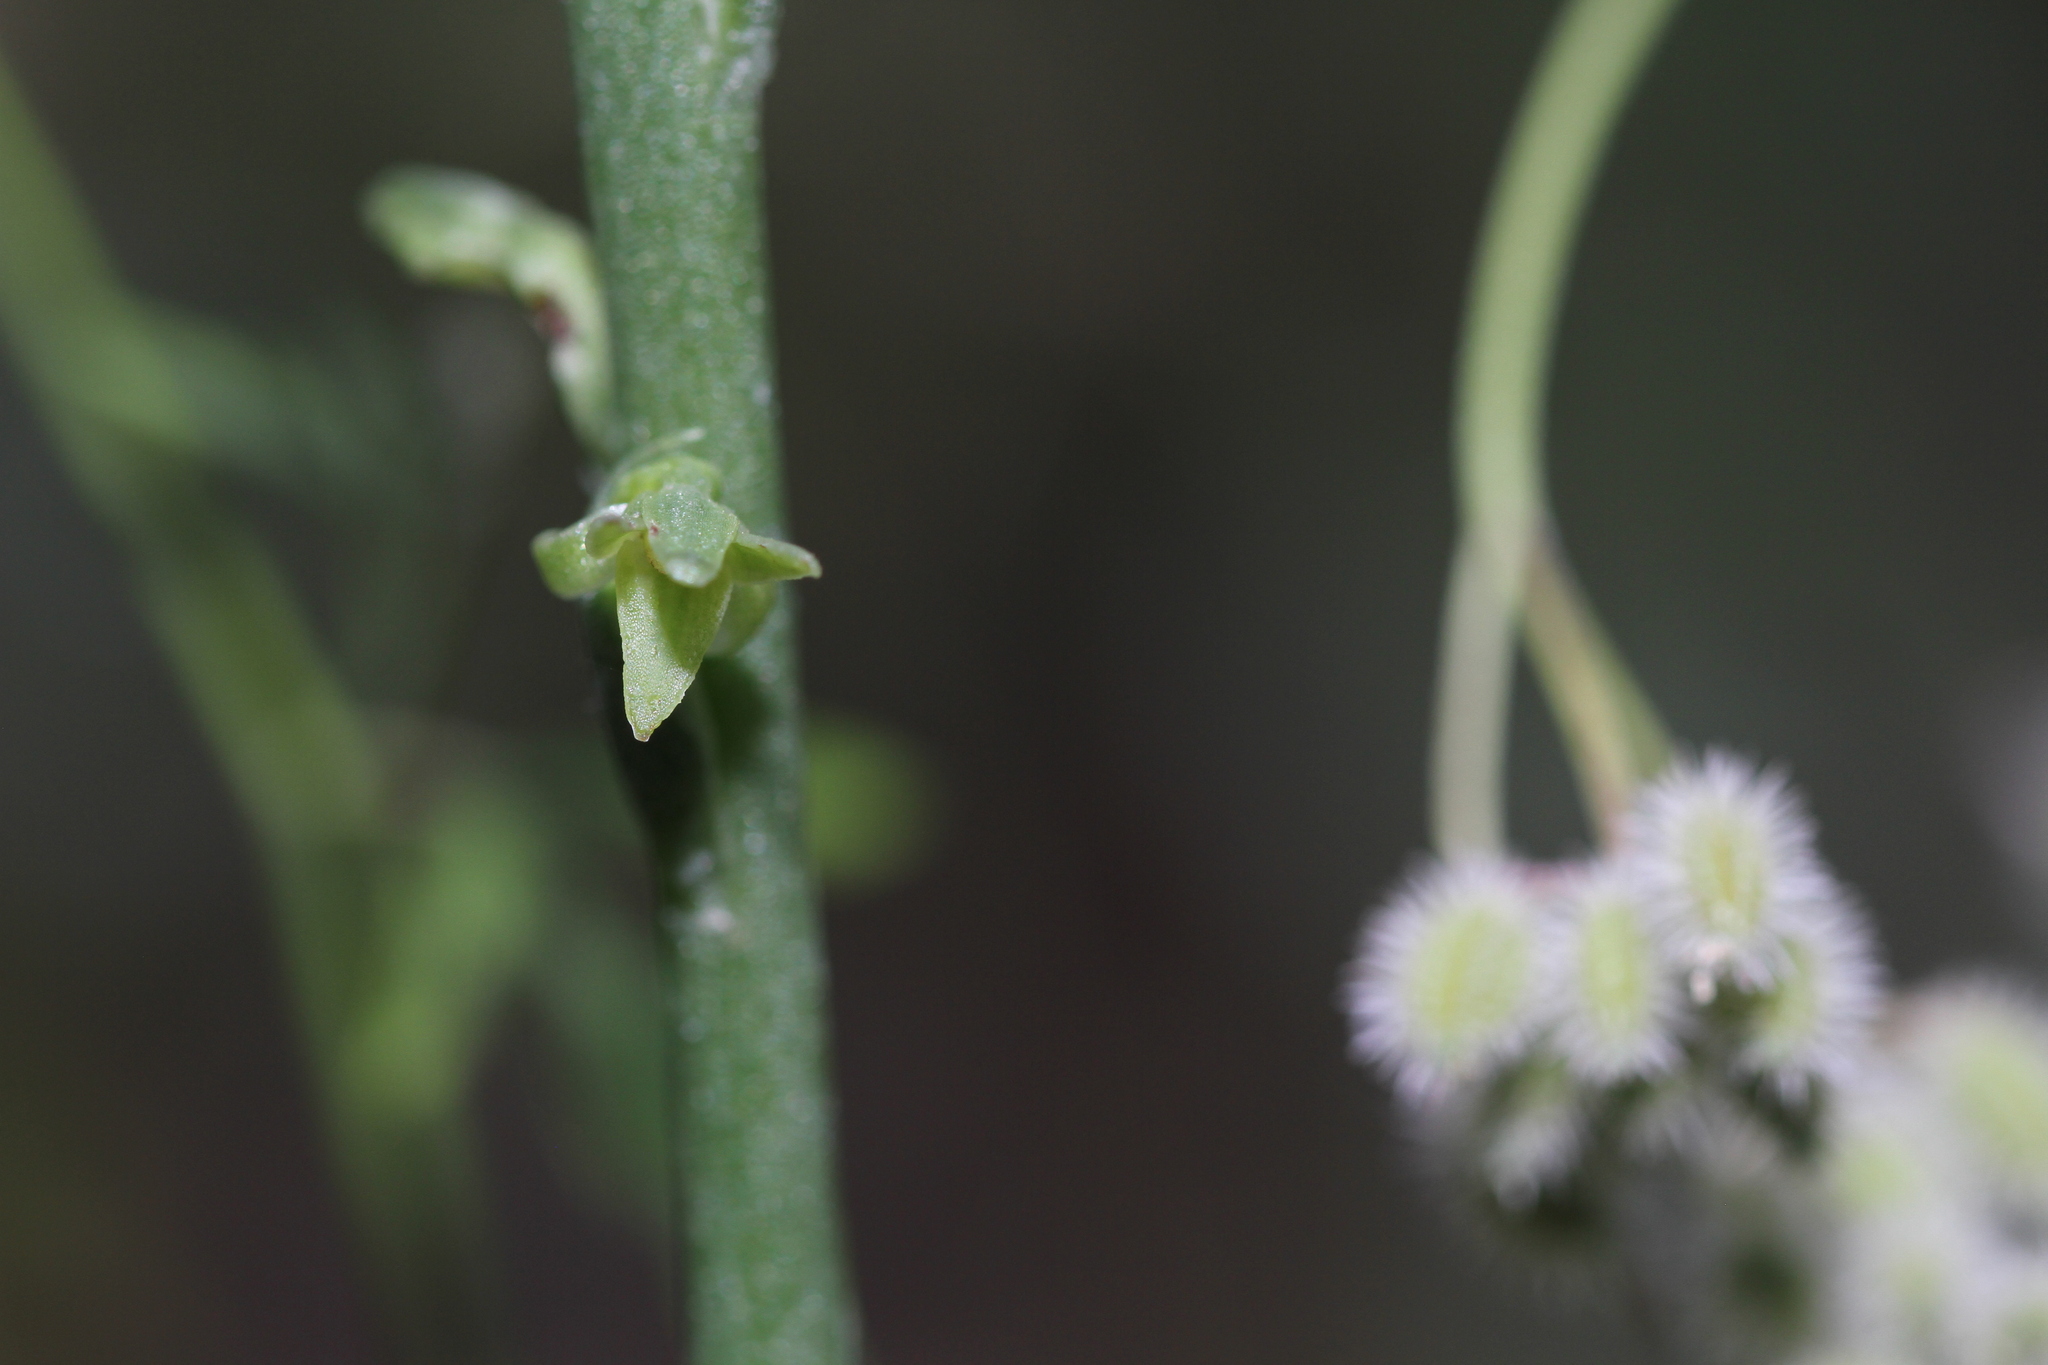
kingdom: Plantae
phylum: Tracheophyta
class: Liliopsida
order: Asparagales
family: Orchidaceae
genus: Platanthera
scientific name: Platanthera elongata
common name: Dense-flowered rein orchid
